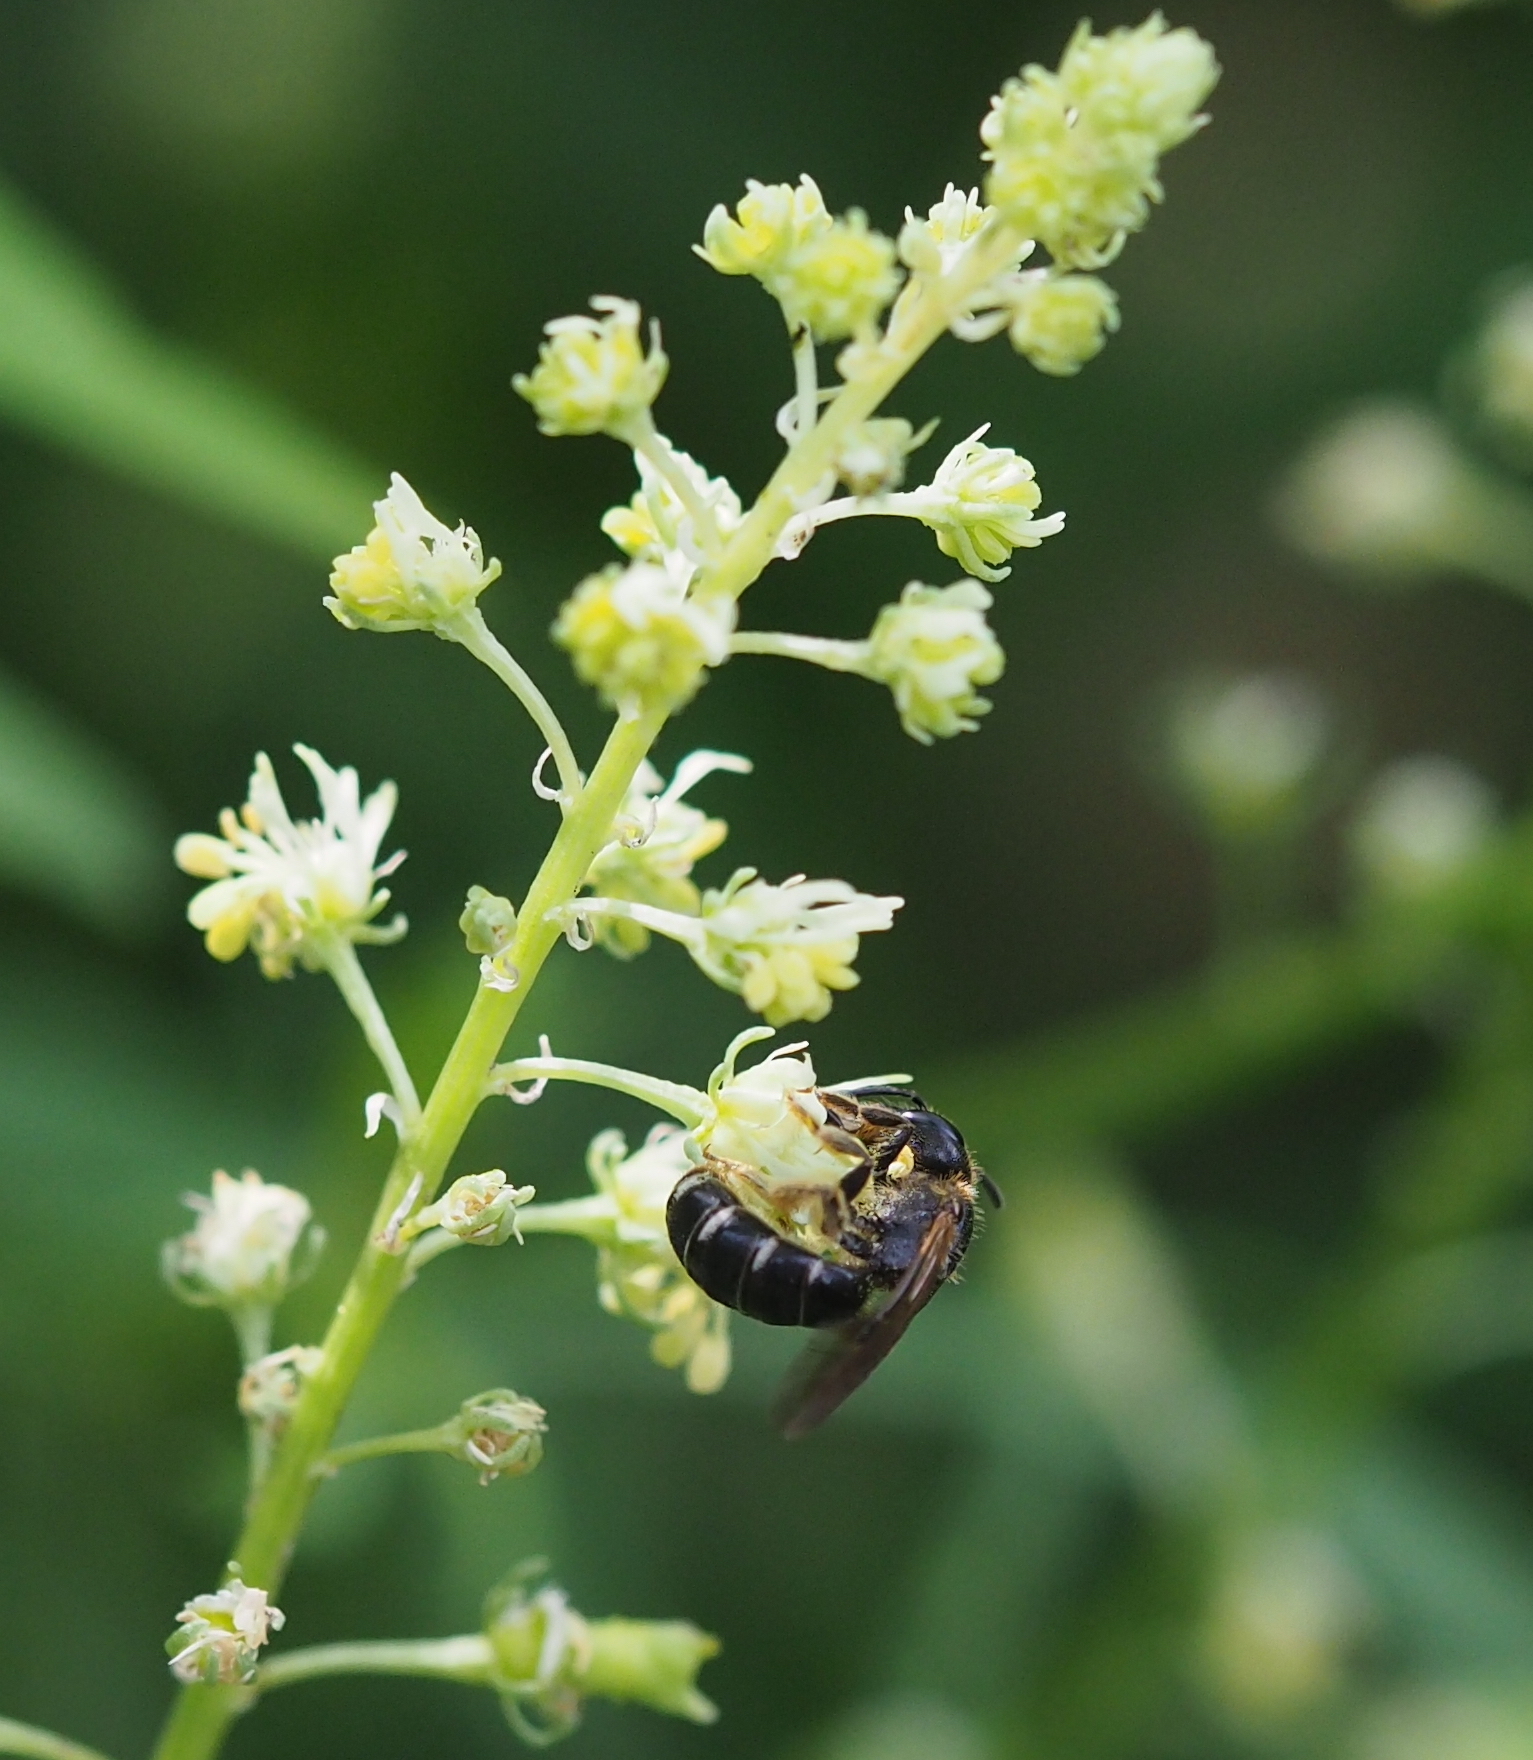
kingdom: Animalia
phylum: Arthropoda
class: Insecta
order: Hymenoptera
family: Halictidae
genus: Halictus
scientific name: Halictus maculatus
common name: Box-heades furrow bee
